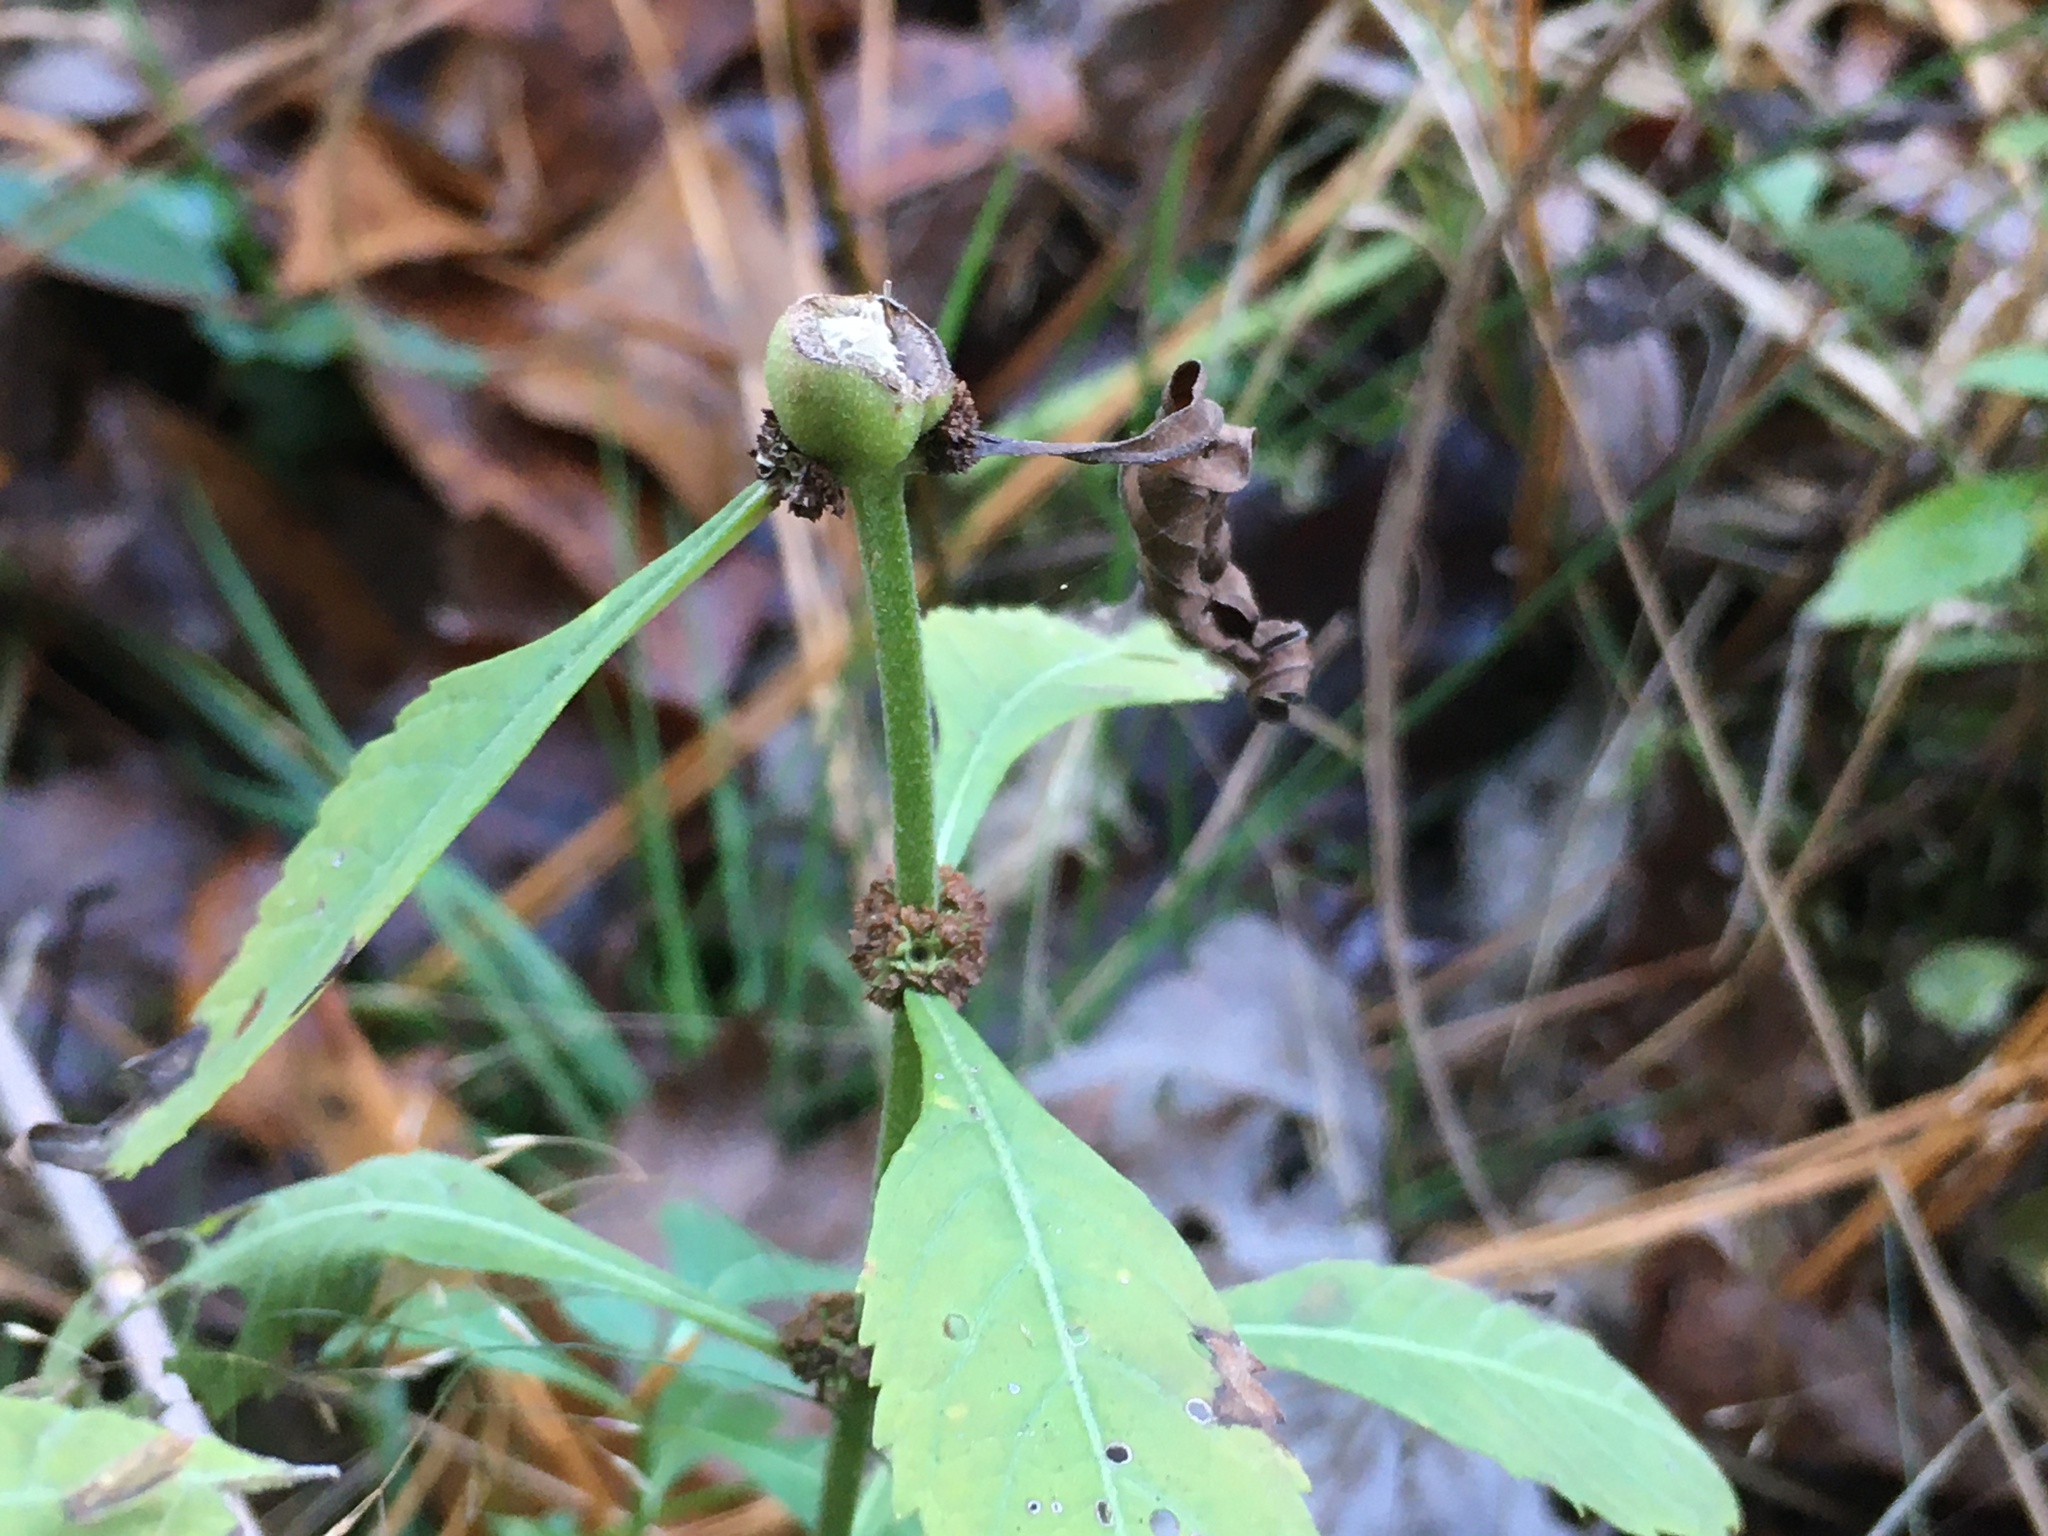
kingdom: Animalia
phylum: Arthropoda
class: Insecta
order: Diptera
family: Cecidomyiidae
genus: Neolasioptera
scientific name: Neolasioptera lycopi
